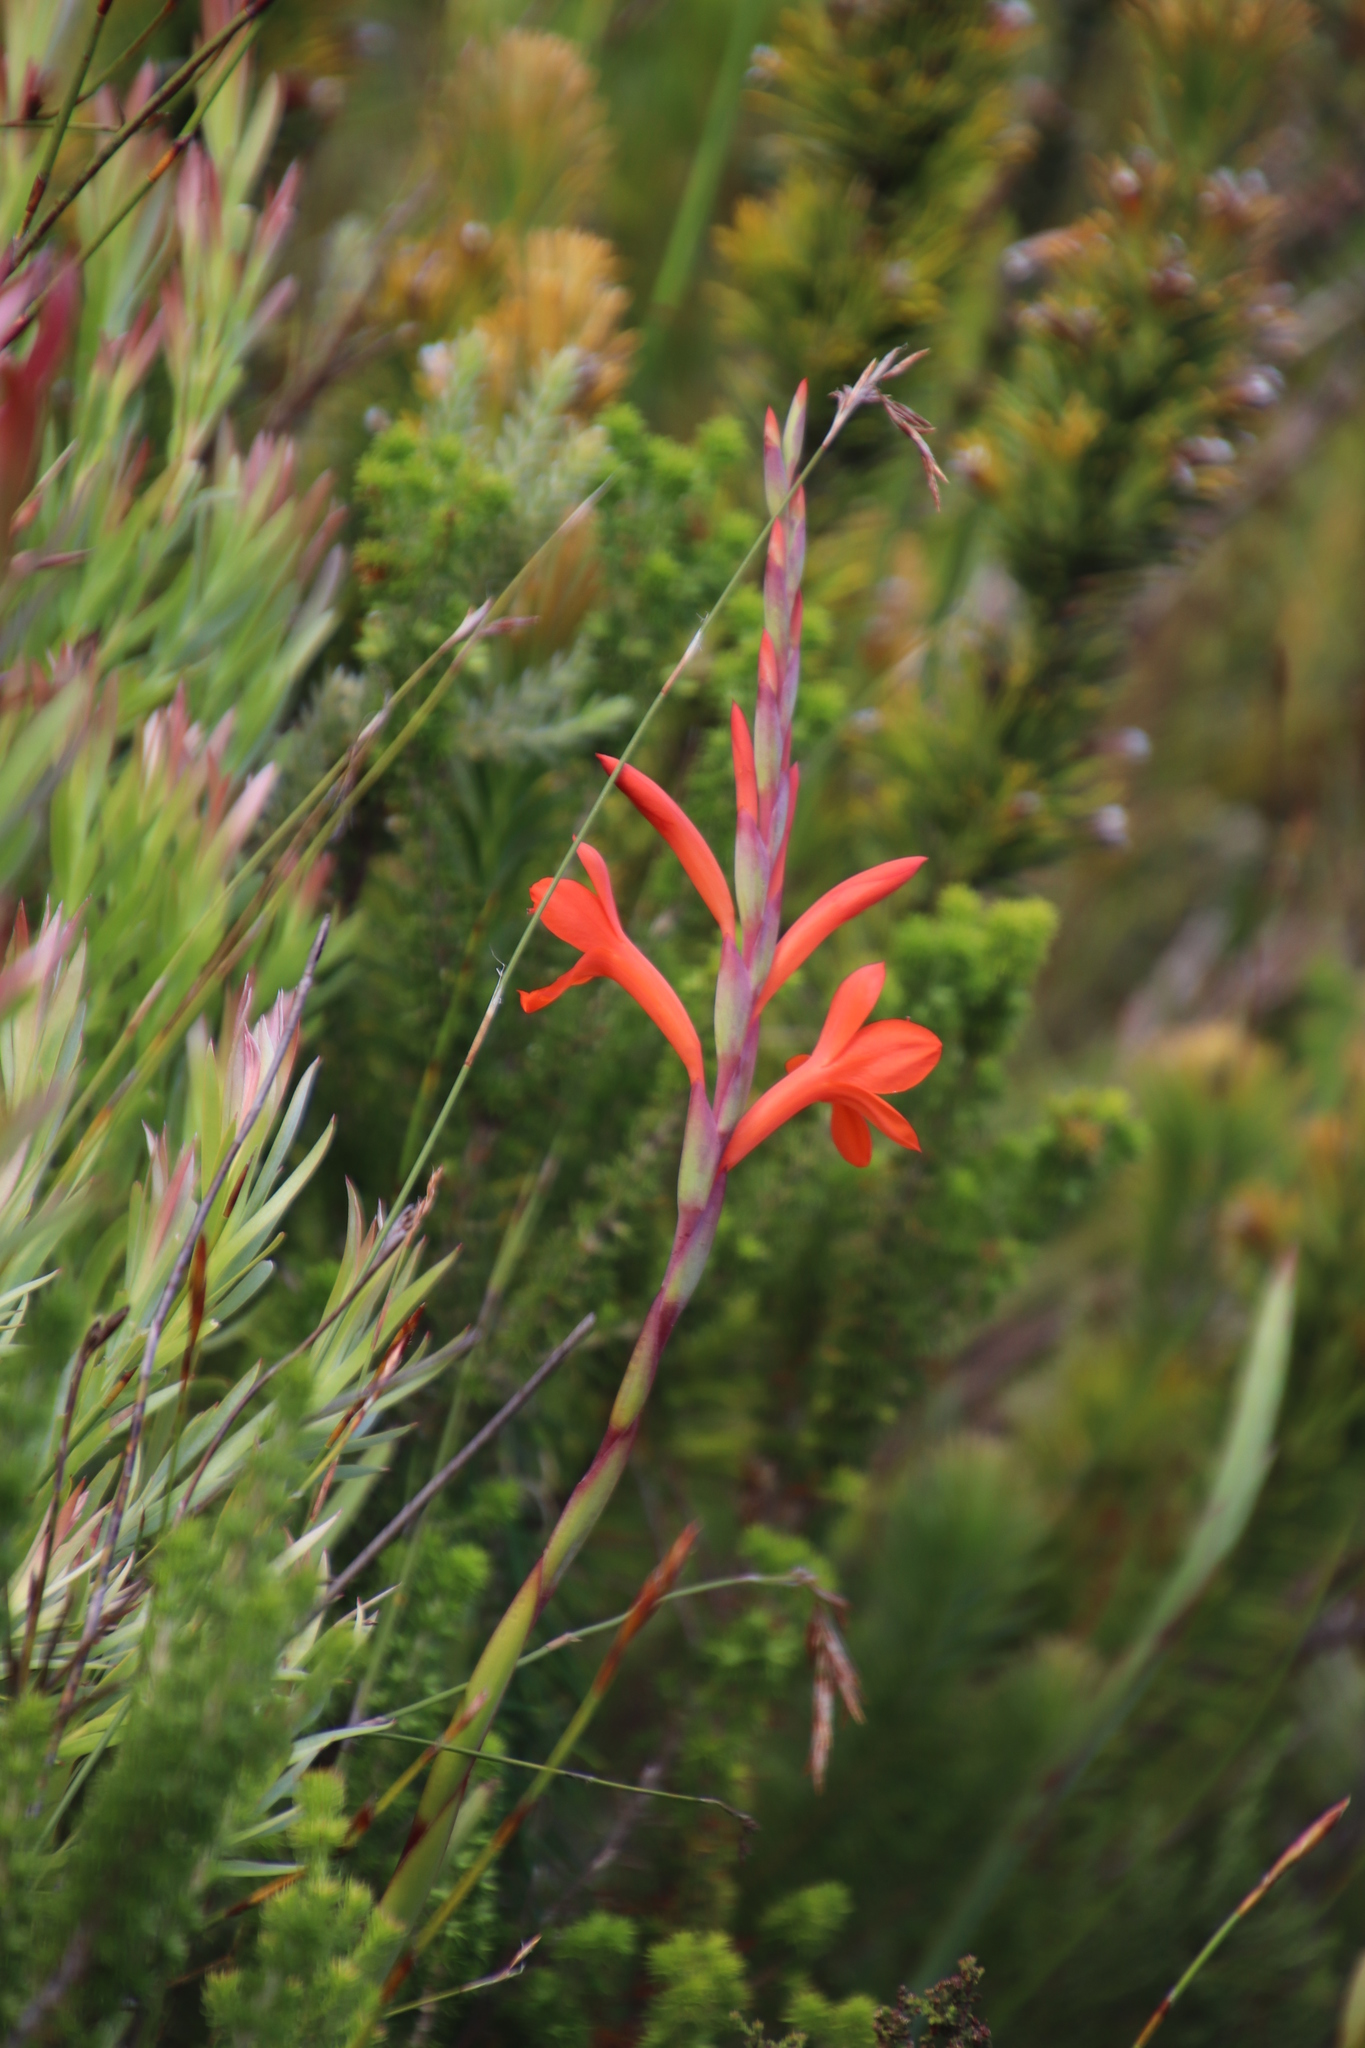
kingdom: Plantae
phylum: Tracheophyta
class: Liliopsida
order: Asparagales
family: Iridaceae
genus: Watsonia
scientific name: Watsonia schlechteri
